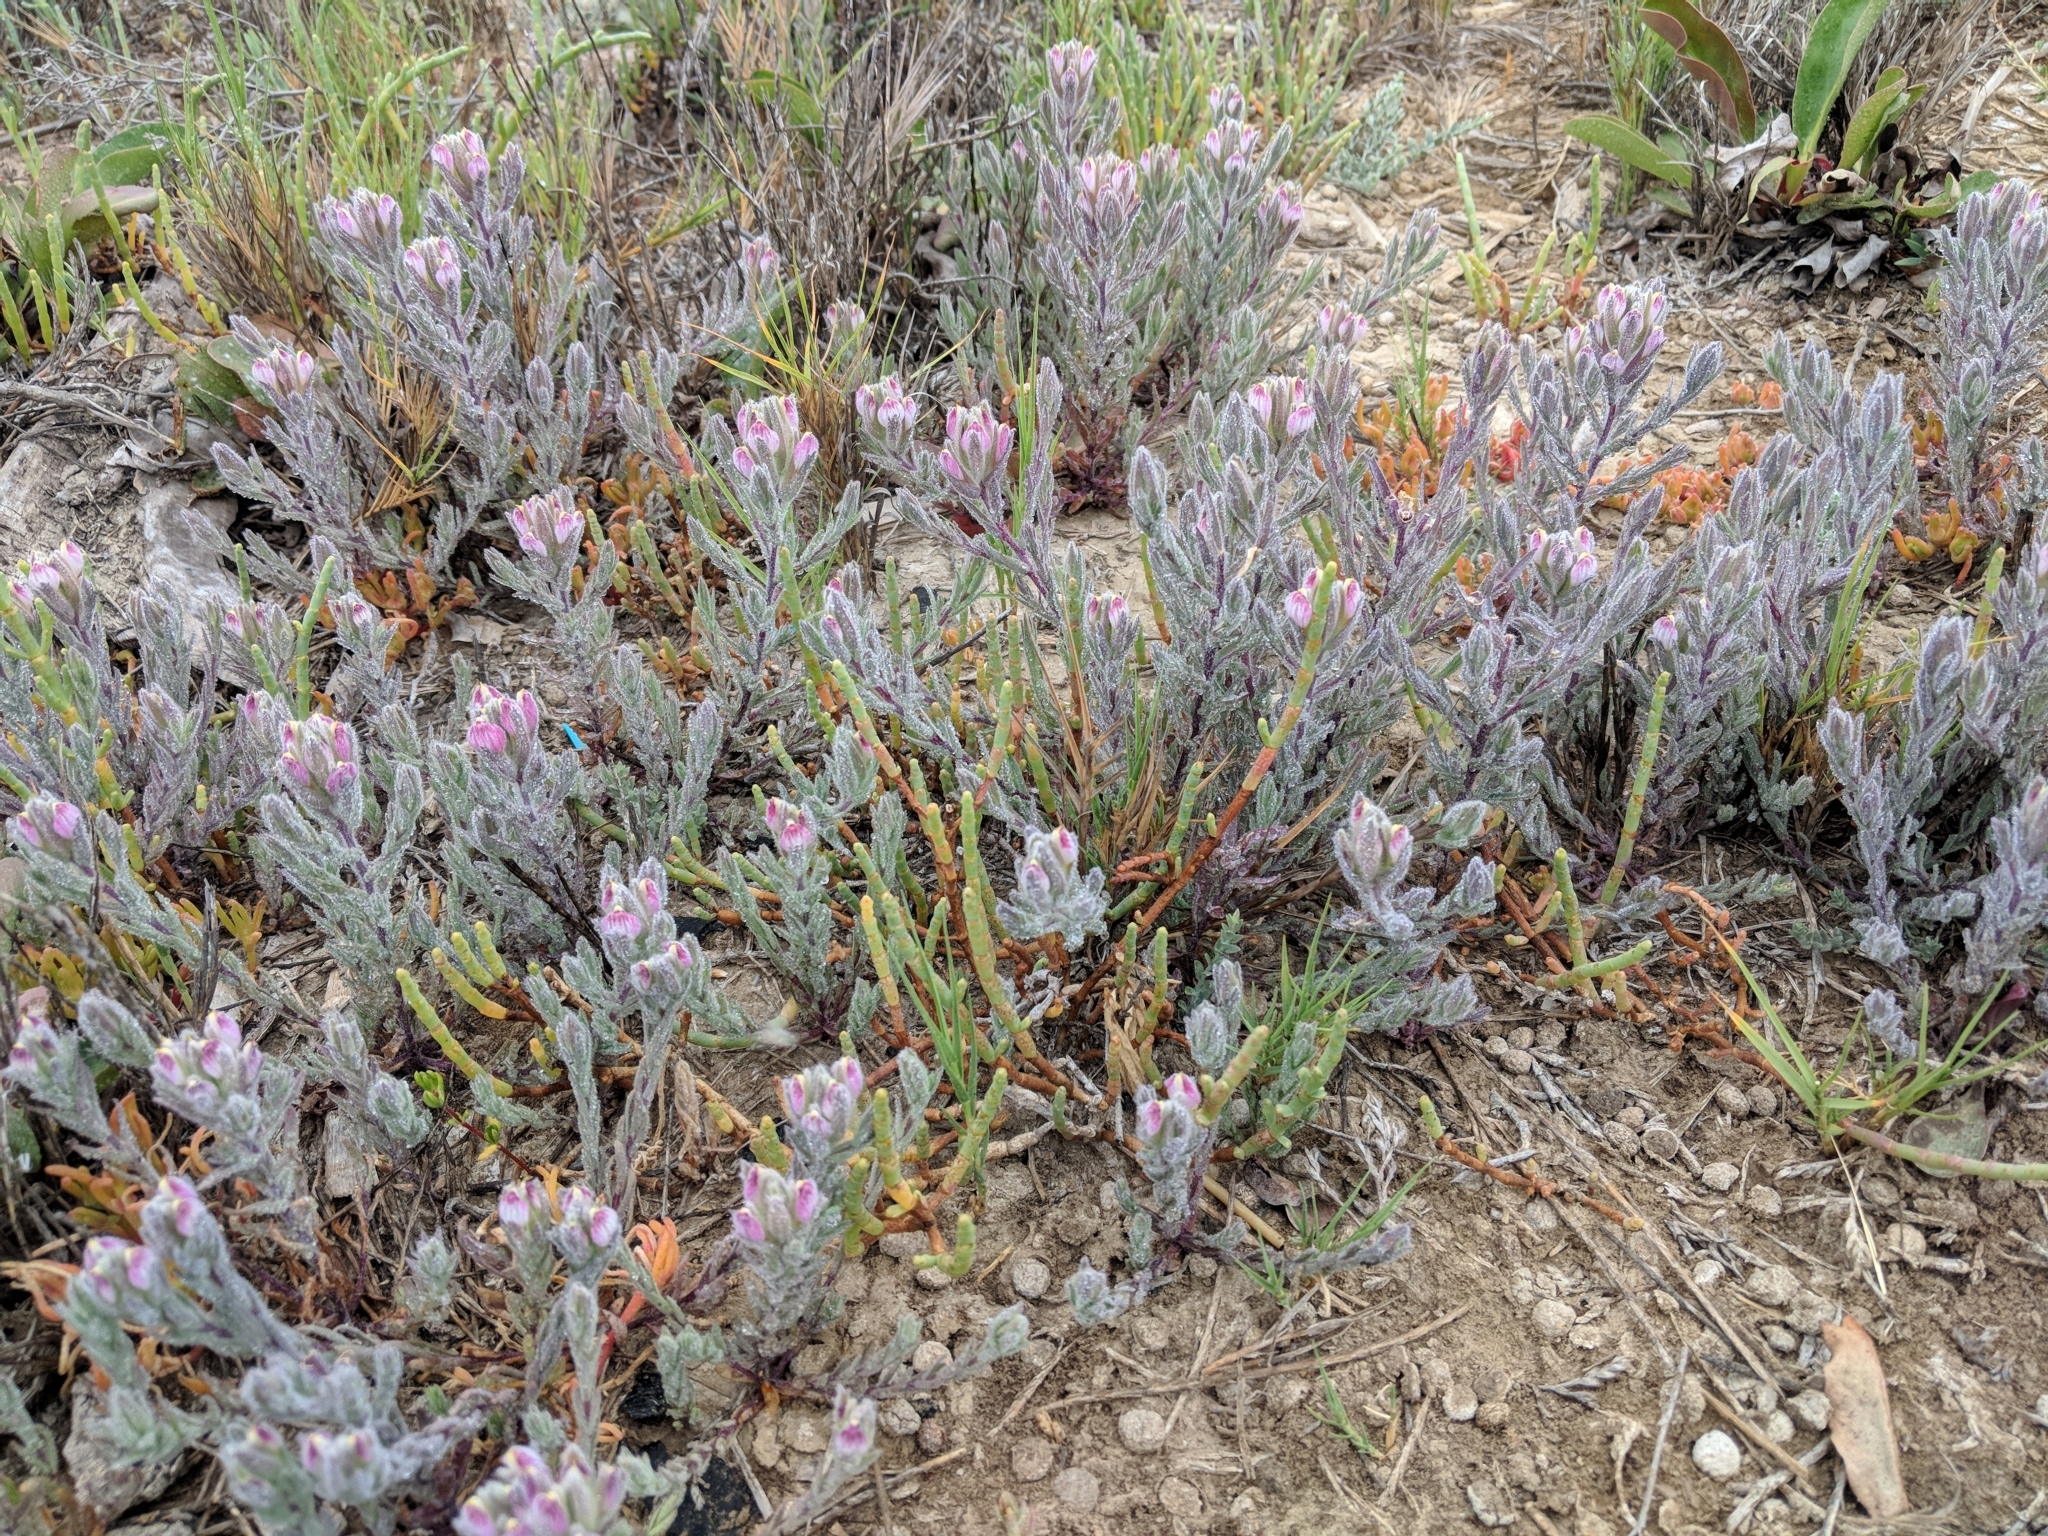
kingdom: Plantae
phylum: Tracheophyta
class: Magnoliopsida
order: Lamiales
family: Orobanchaceae
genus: Chloropyron
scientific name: Chloropyron maritimum
